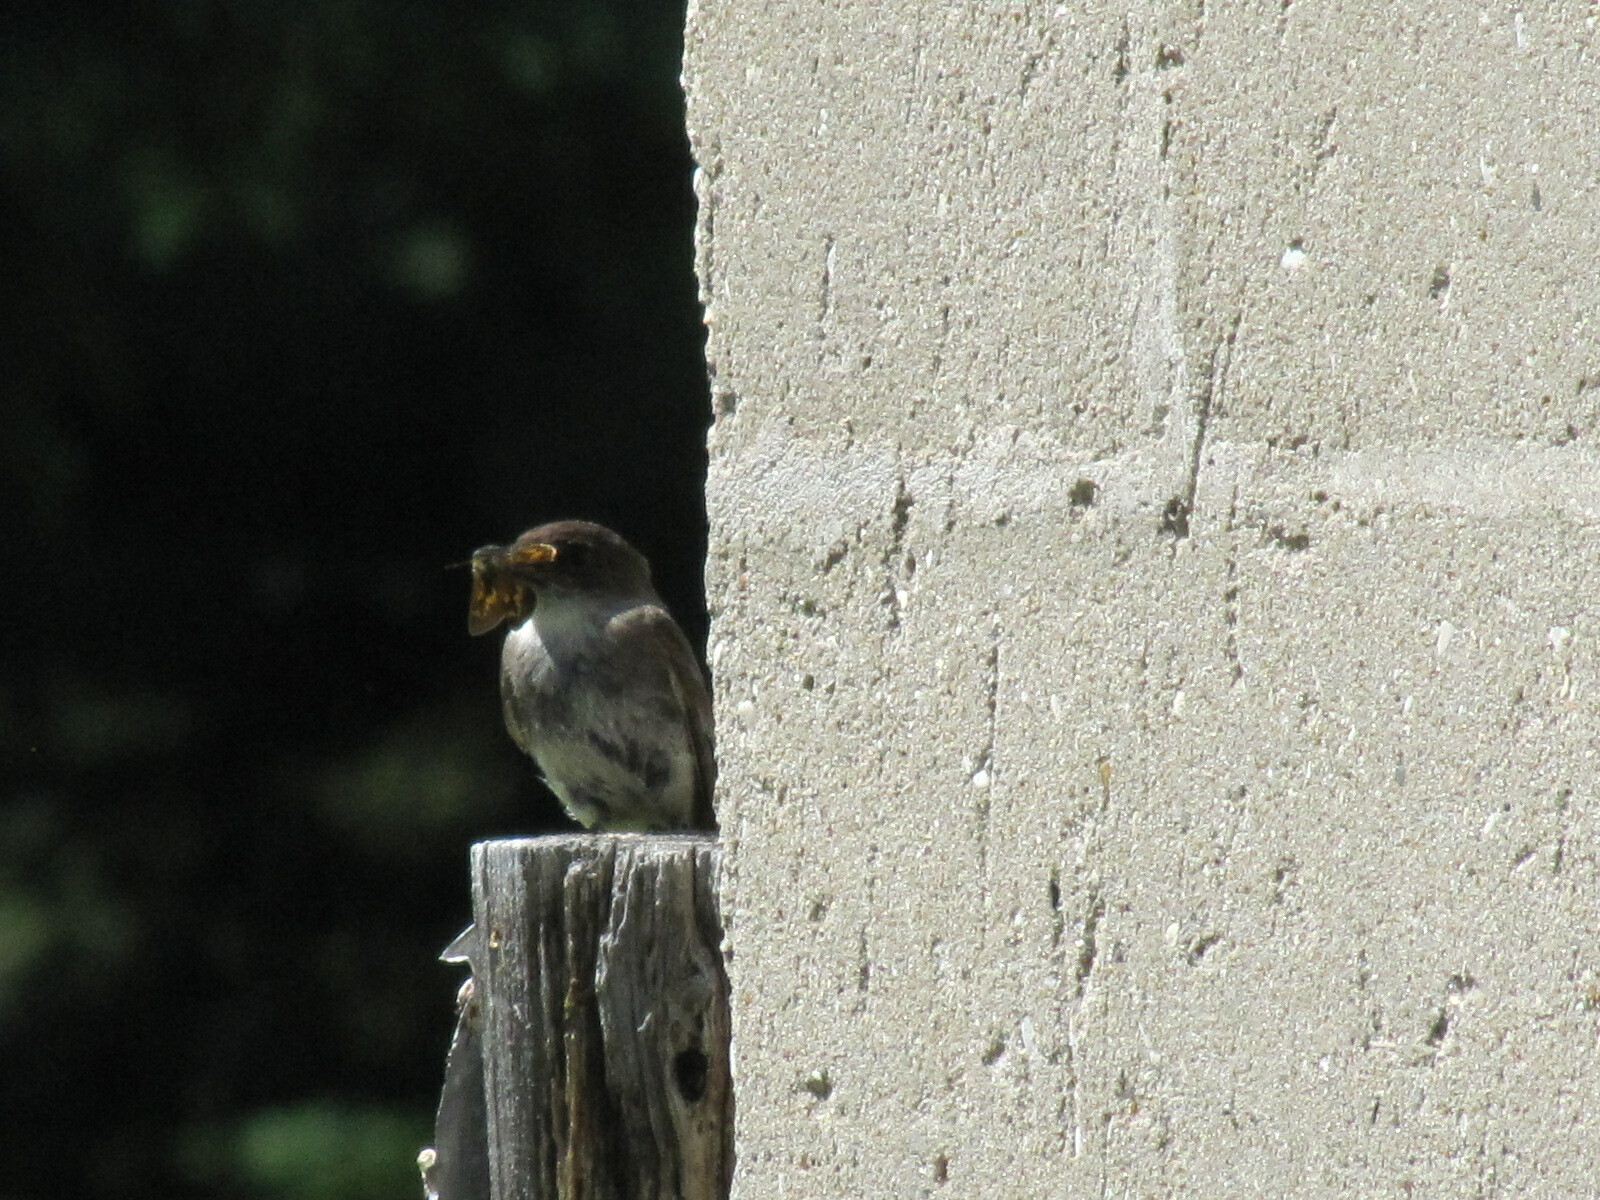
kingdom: Animalia
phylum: Chordata
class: Aves
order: Passeriformes
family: Tyrannidae
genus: Sayornis
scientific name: Sayornis phoebe
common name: Eastern phoebe
